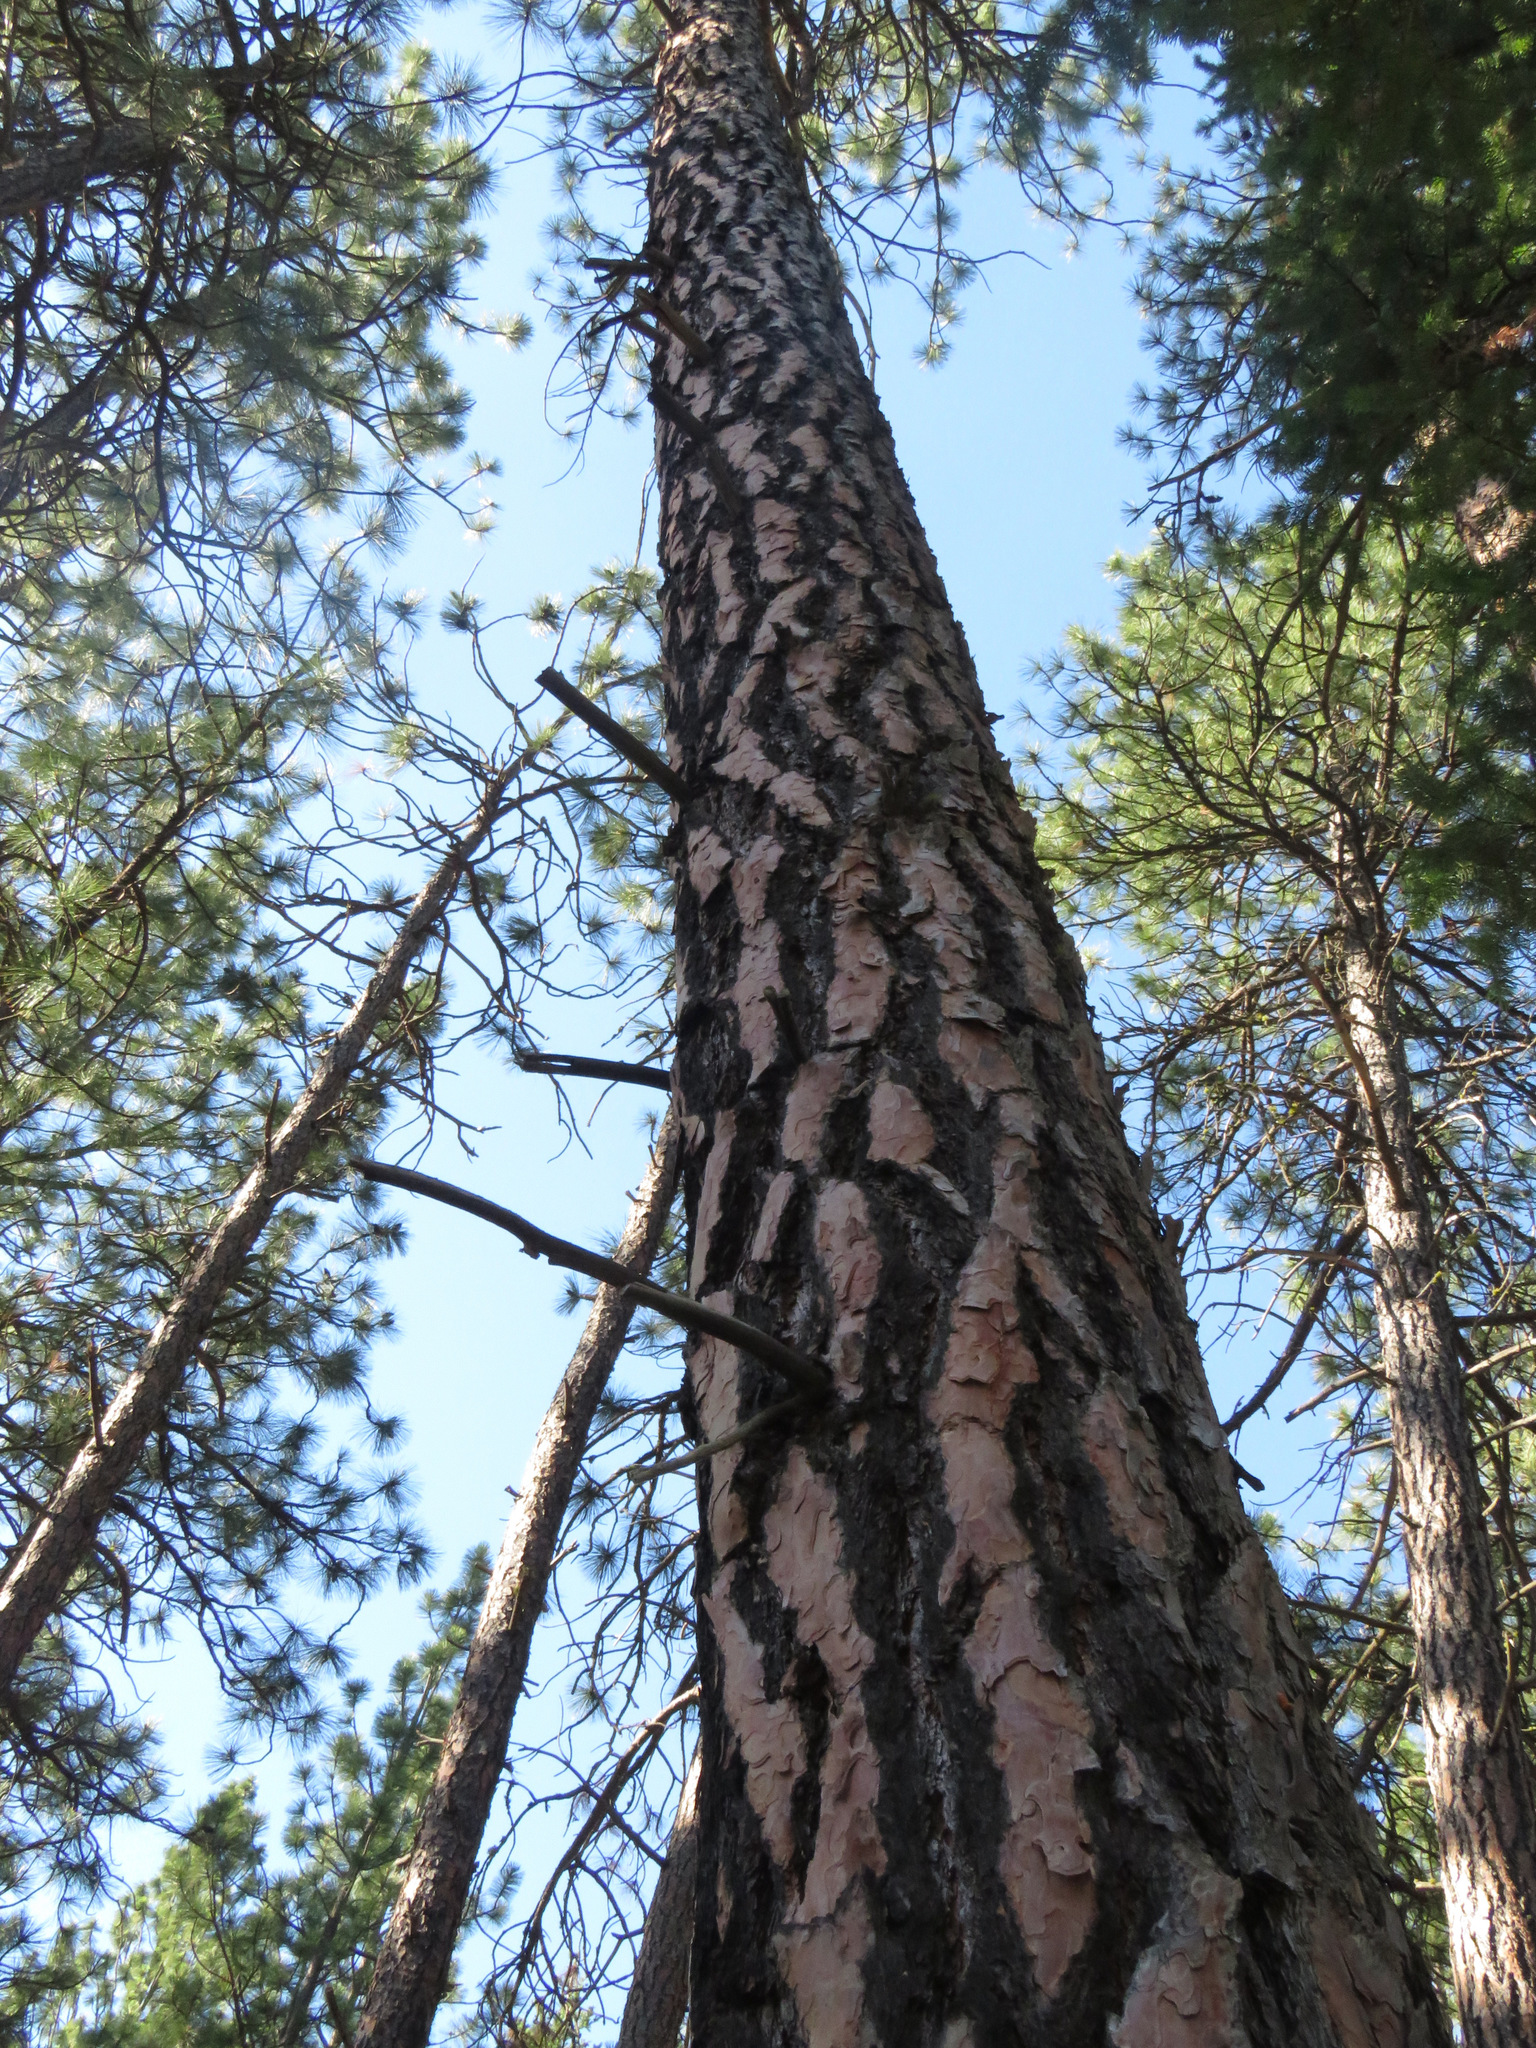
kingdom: Plantae
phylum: Tracheophyta
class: Pinopsida
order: Pinales
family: Pinaceae
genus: Pinus
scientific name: Pinus ponderosa
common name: Western yellow-pine
